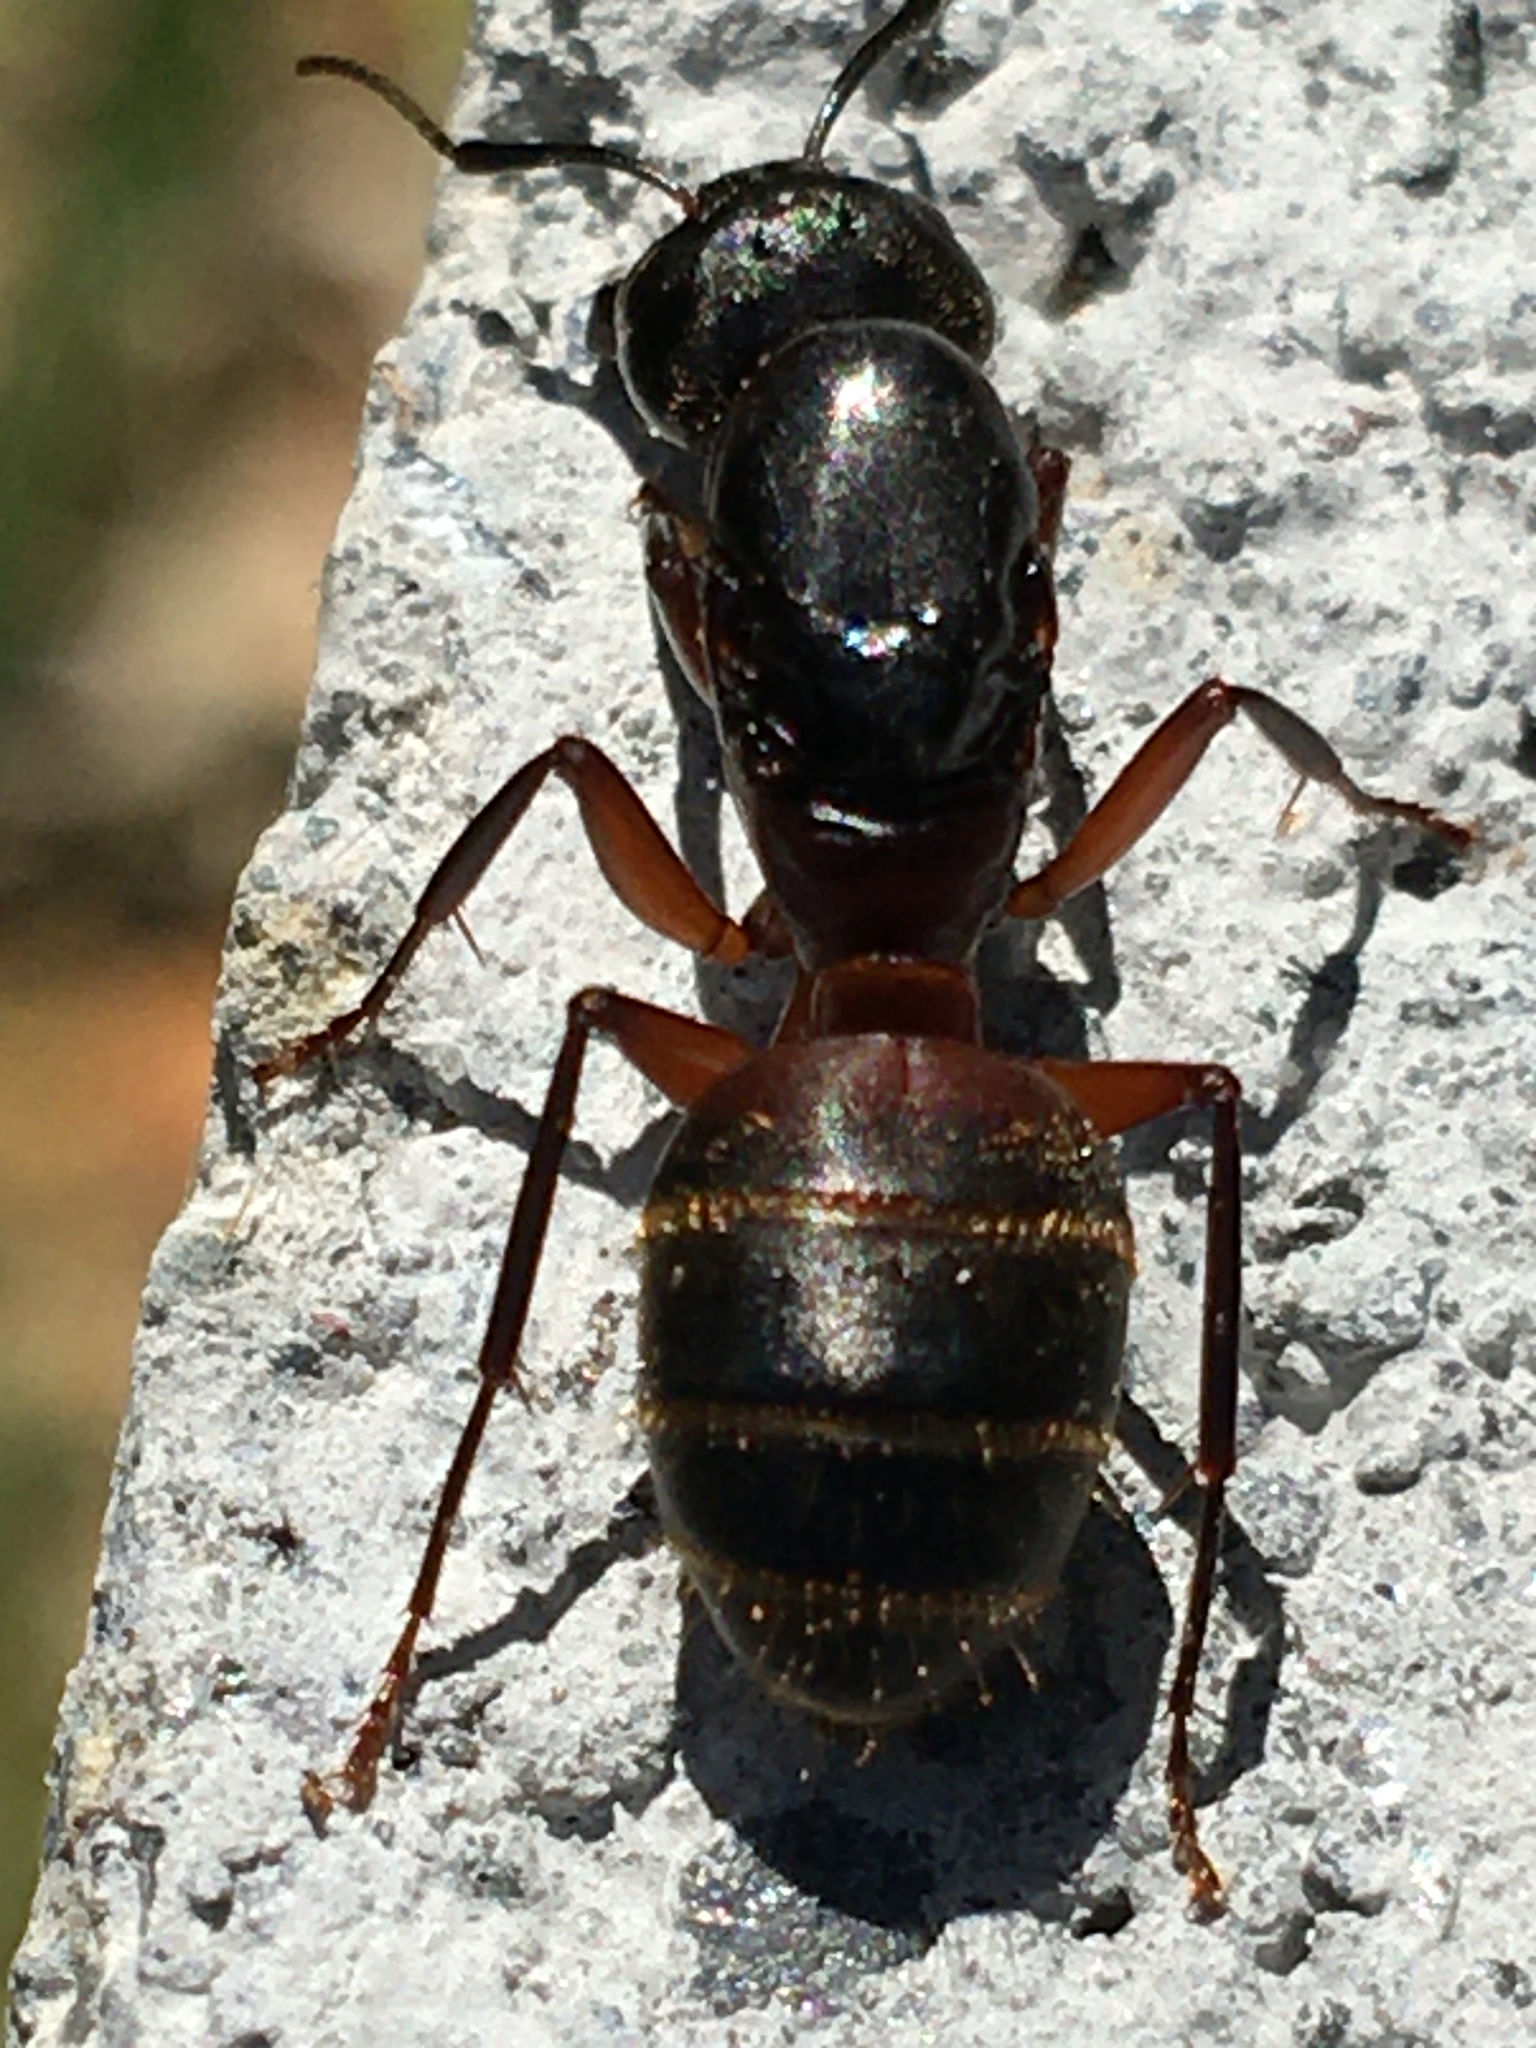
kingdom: Animalia
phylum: Arthropoda
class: Insecta
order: Hymenoptera
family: Formicidae
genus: Camponotus
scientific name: Camponotus chromaiodes
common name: Red carpenter ant
